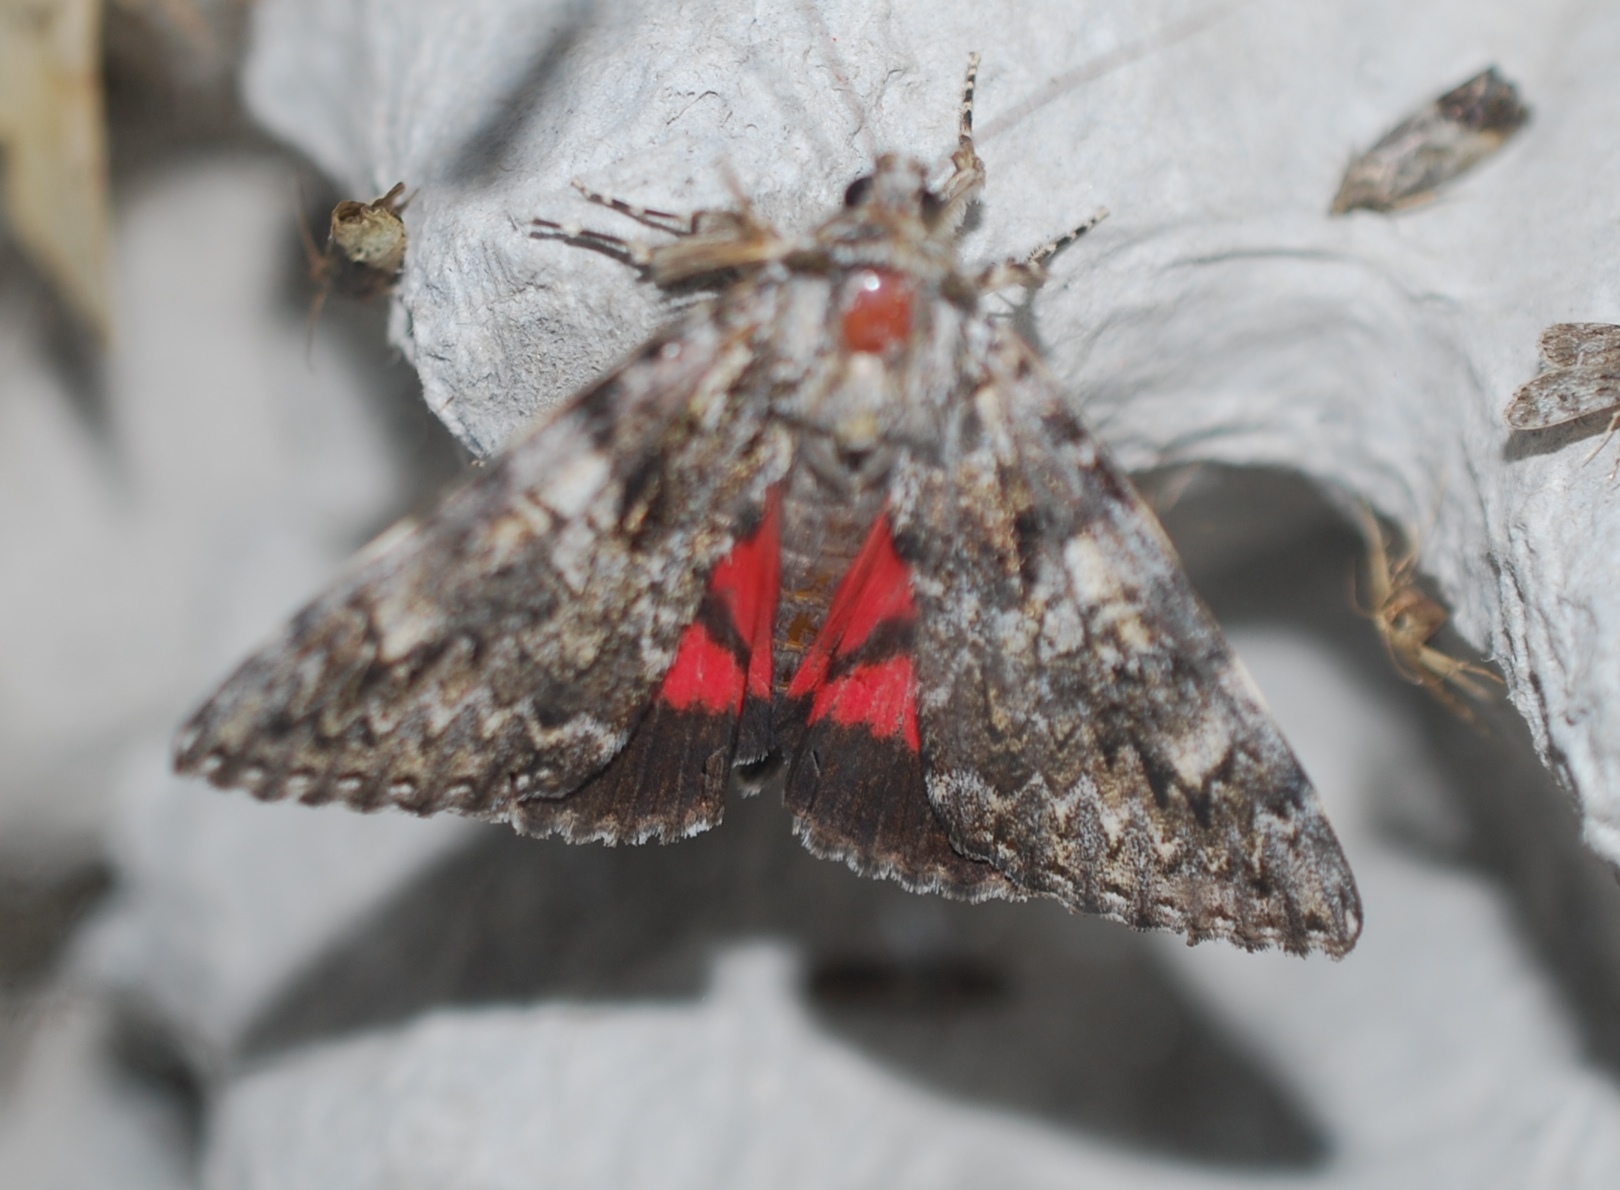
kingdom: Animalia
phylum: Arthropoda
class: Insecta
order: Lepidoptera
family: Erebidae
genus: Catocala
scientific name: Catocala promissa
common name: Light crimson underwing
